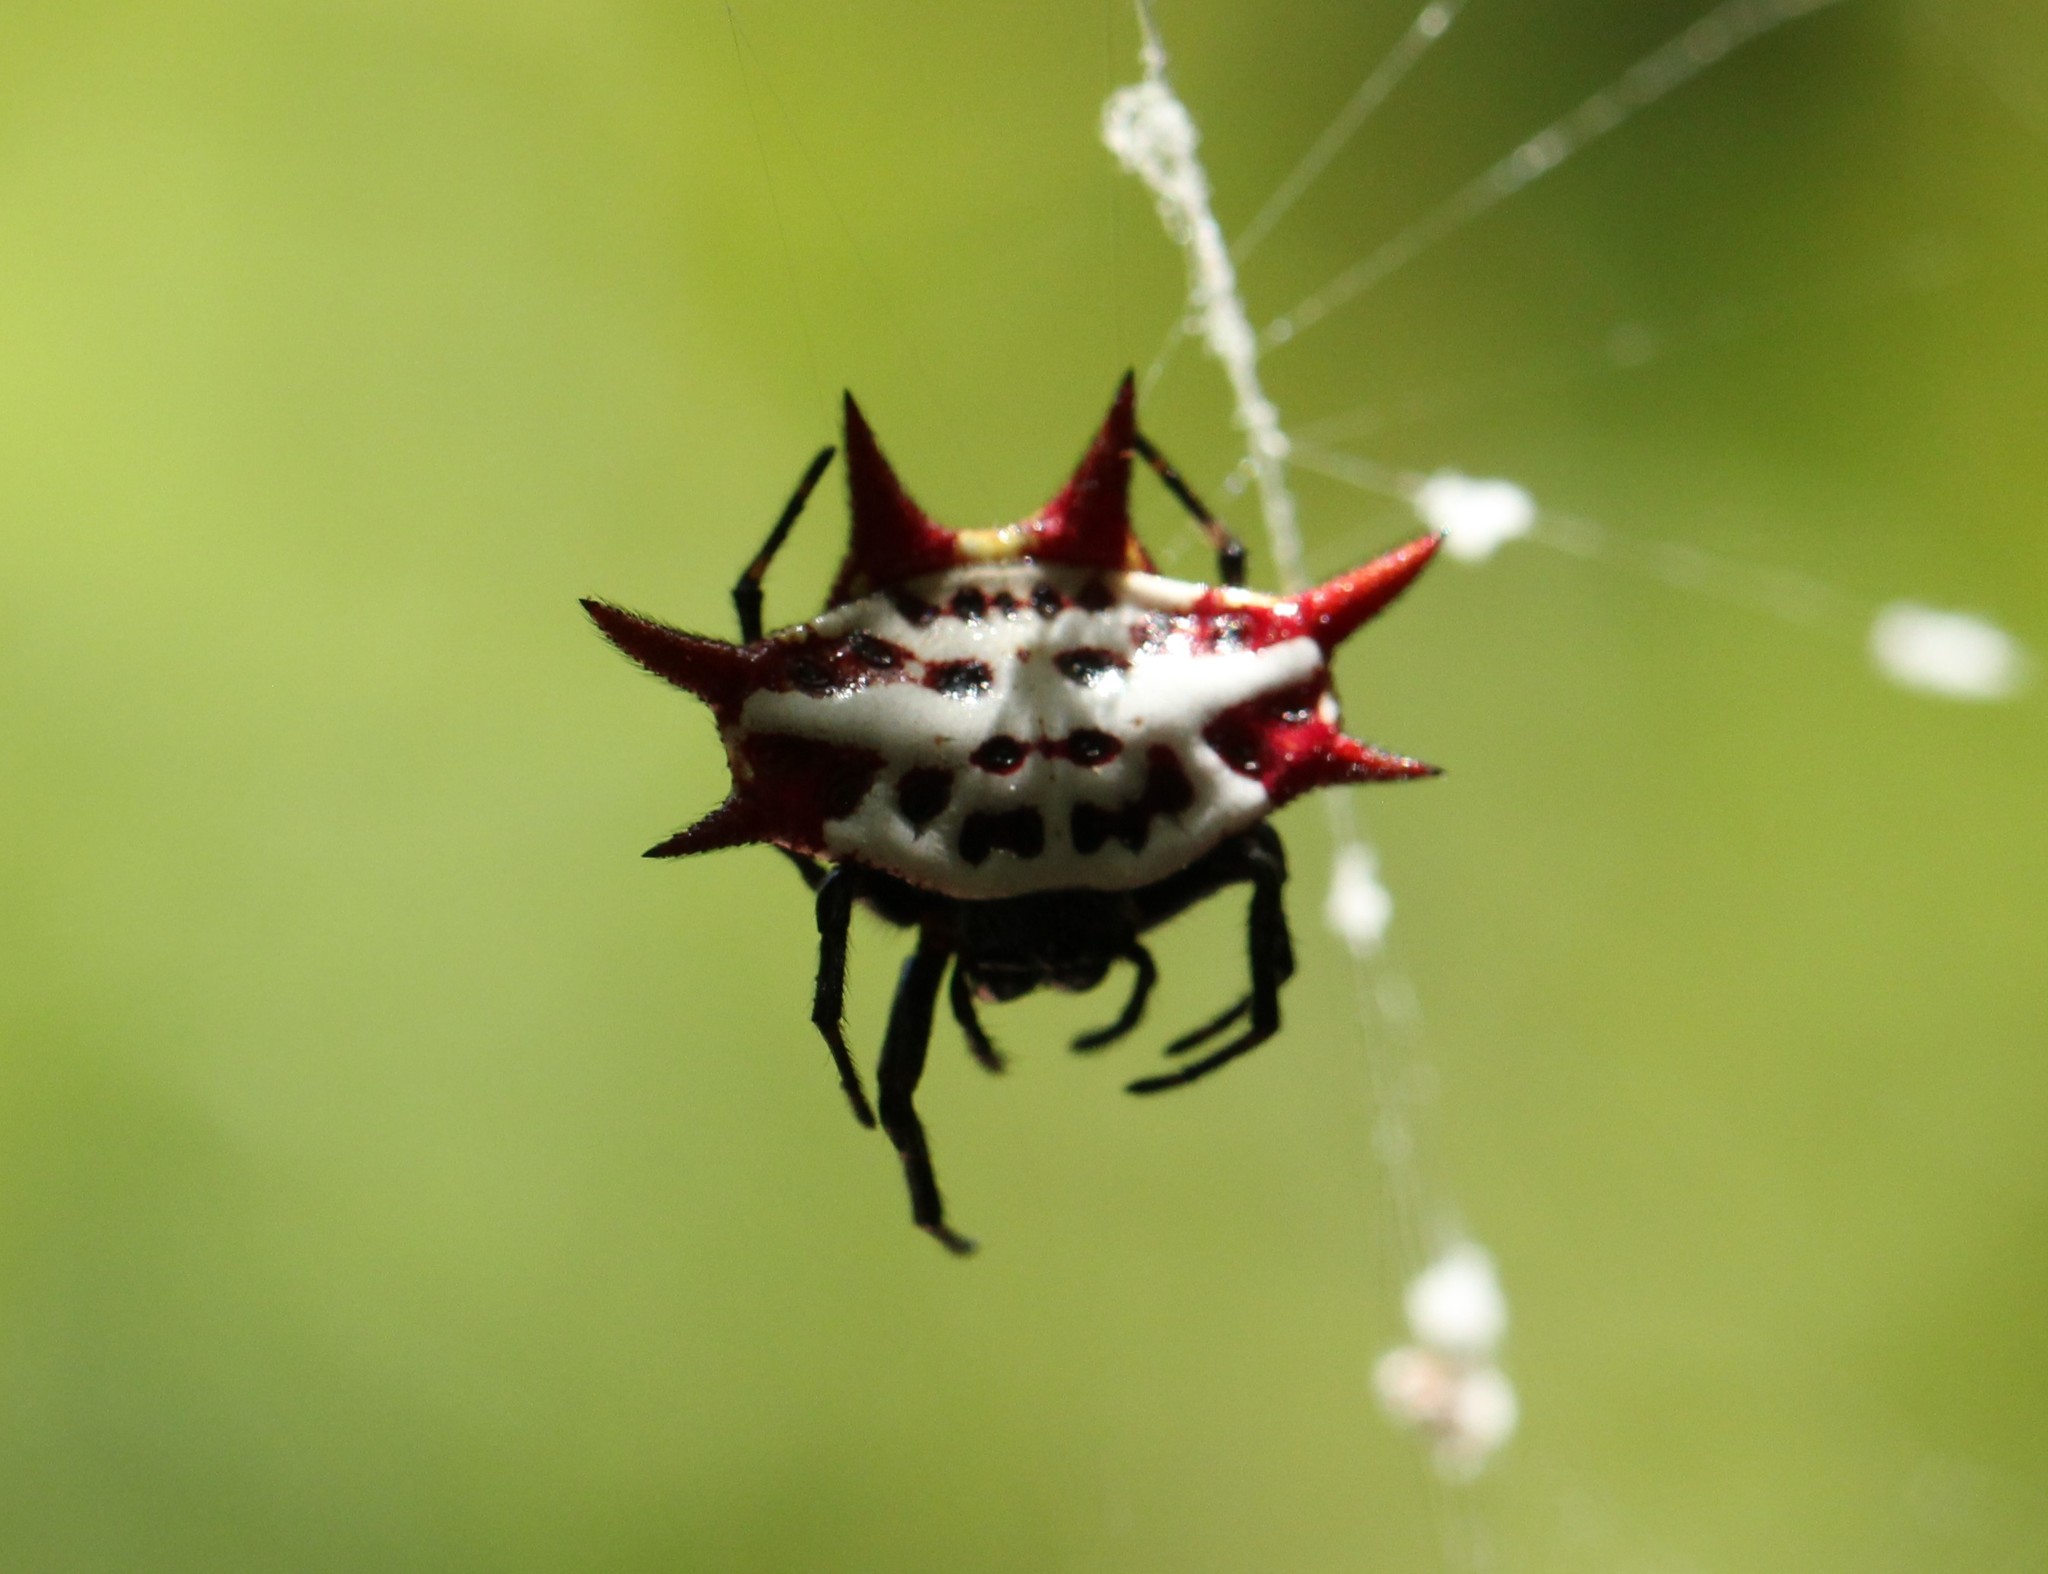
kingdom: Animalia
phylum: Arthropoda
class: Arachnida
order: Araneae
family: Araneidae
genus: Gasteracantha
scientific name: Gasteracantha cancriformis
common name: Orb weavers
